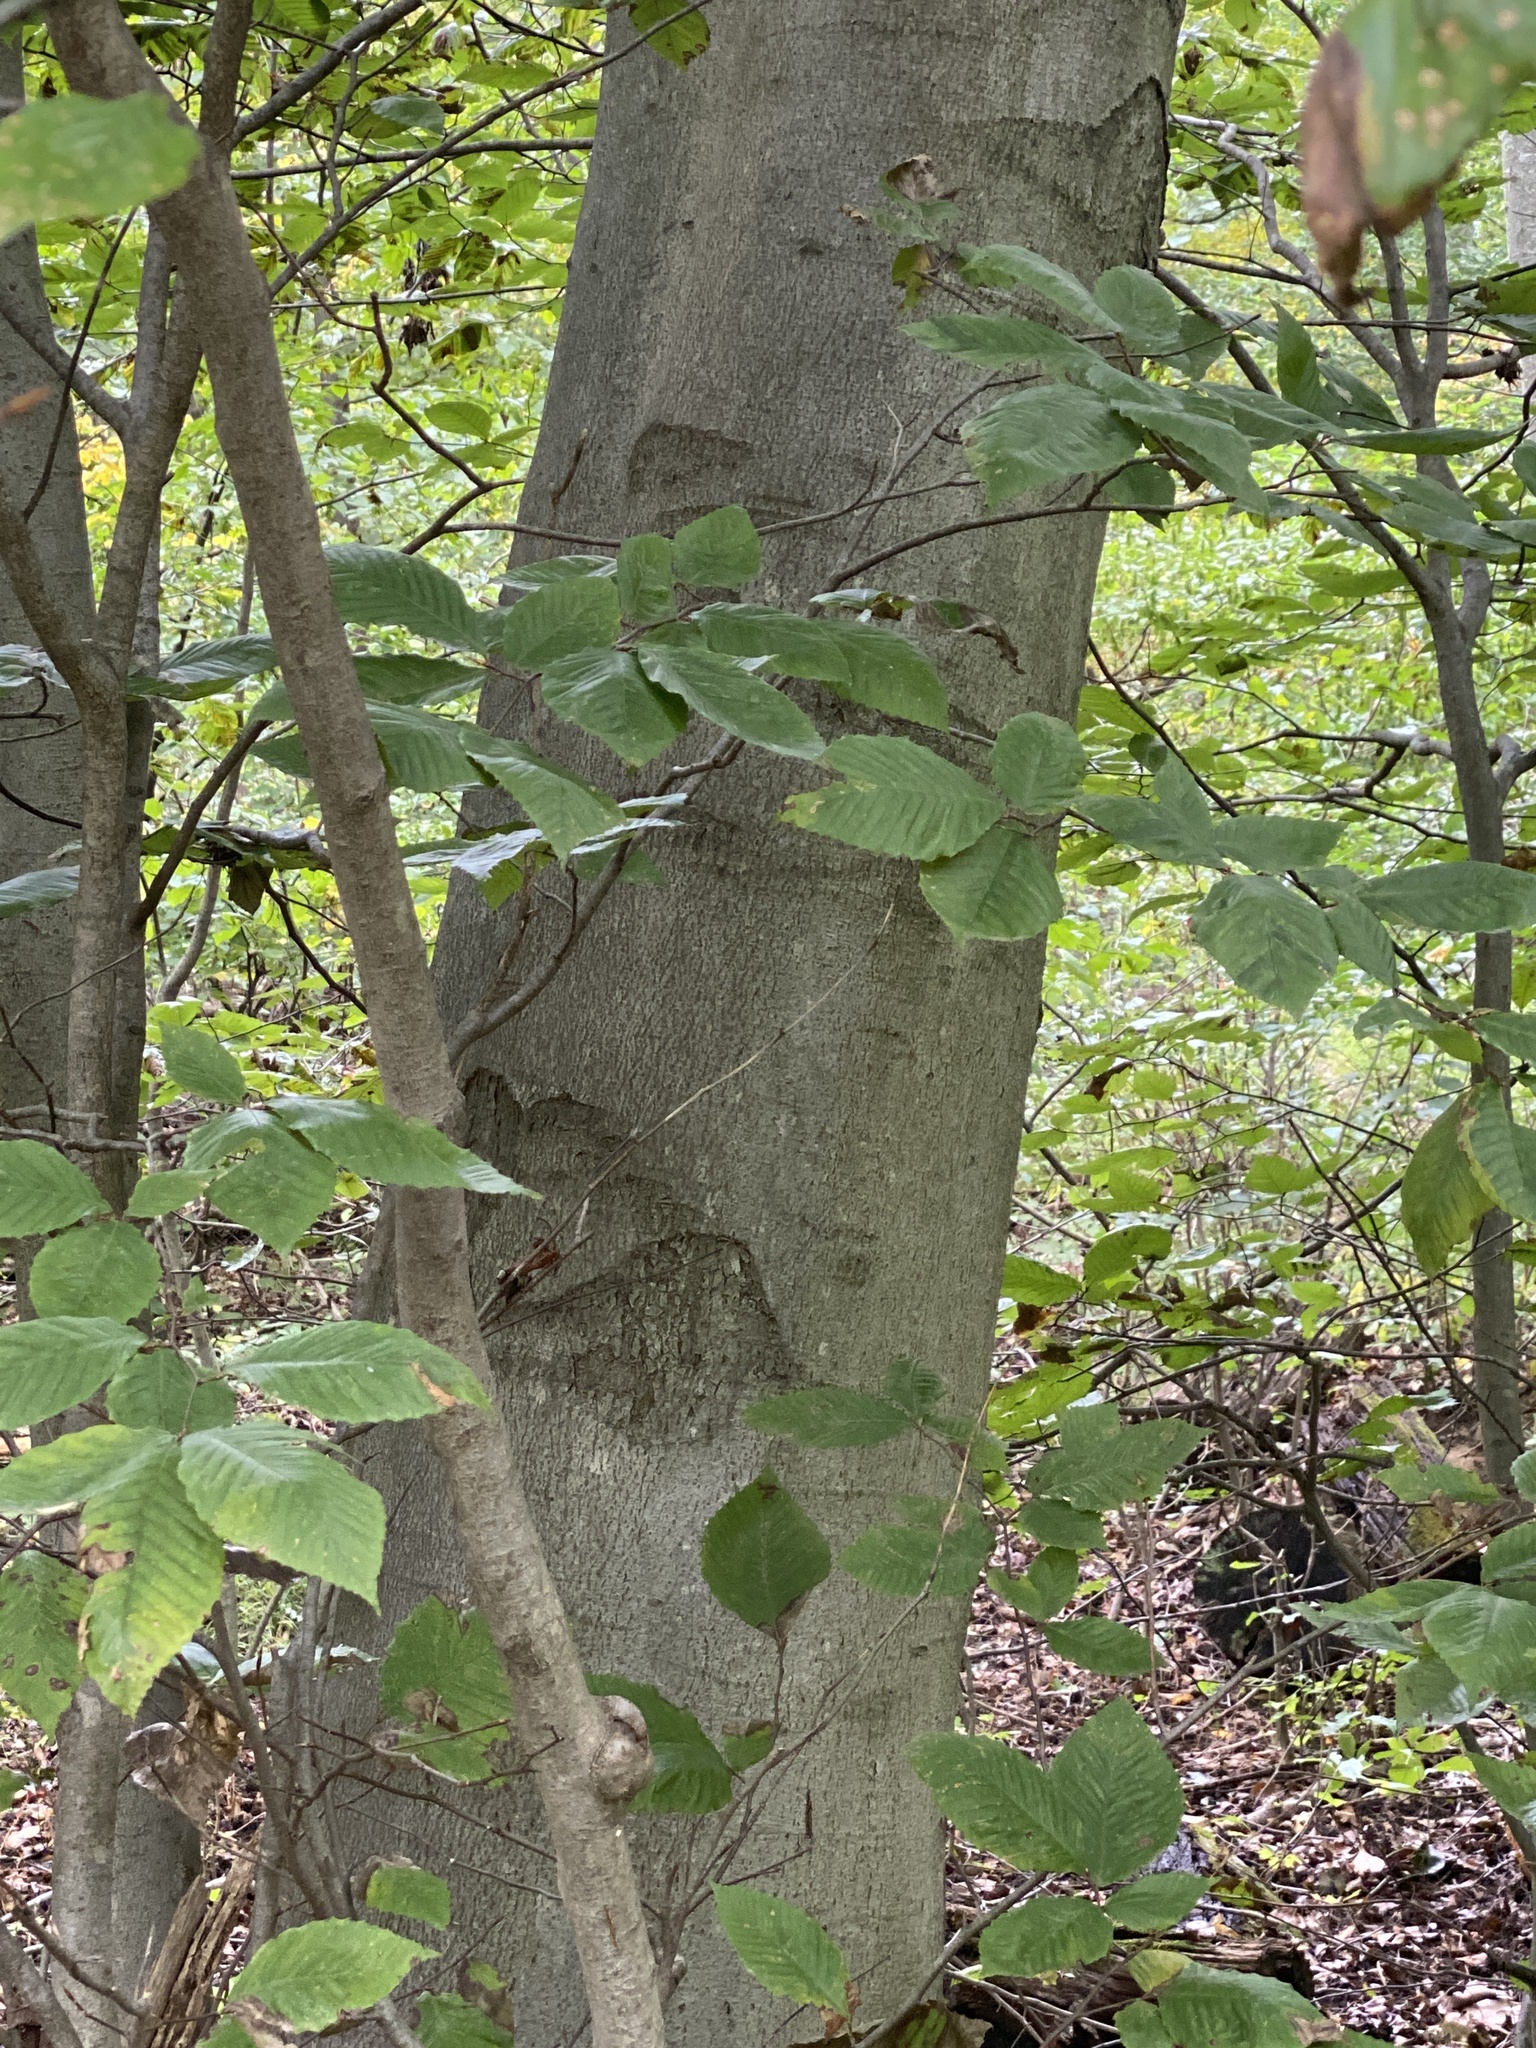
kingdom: Plantae
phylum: Tracheophyta
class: Magnoliopsida
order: Fagales
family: Fagaceae
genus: Fagus
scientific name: Fagus grandifolia
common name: American beech
